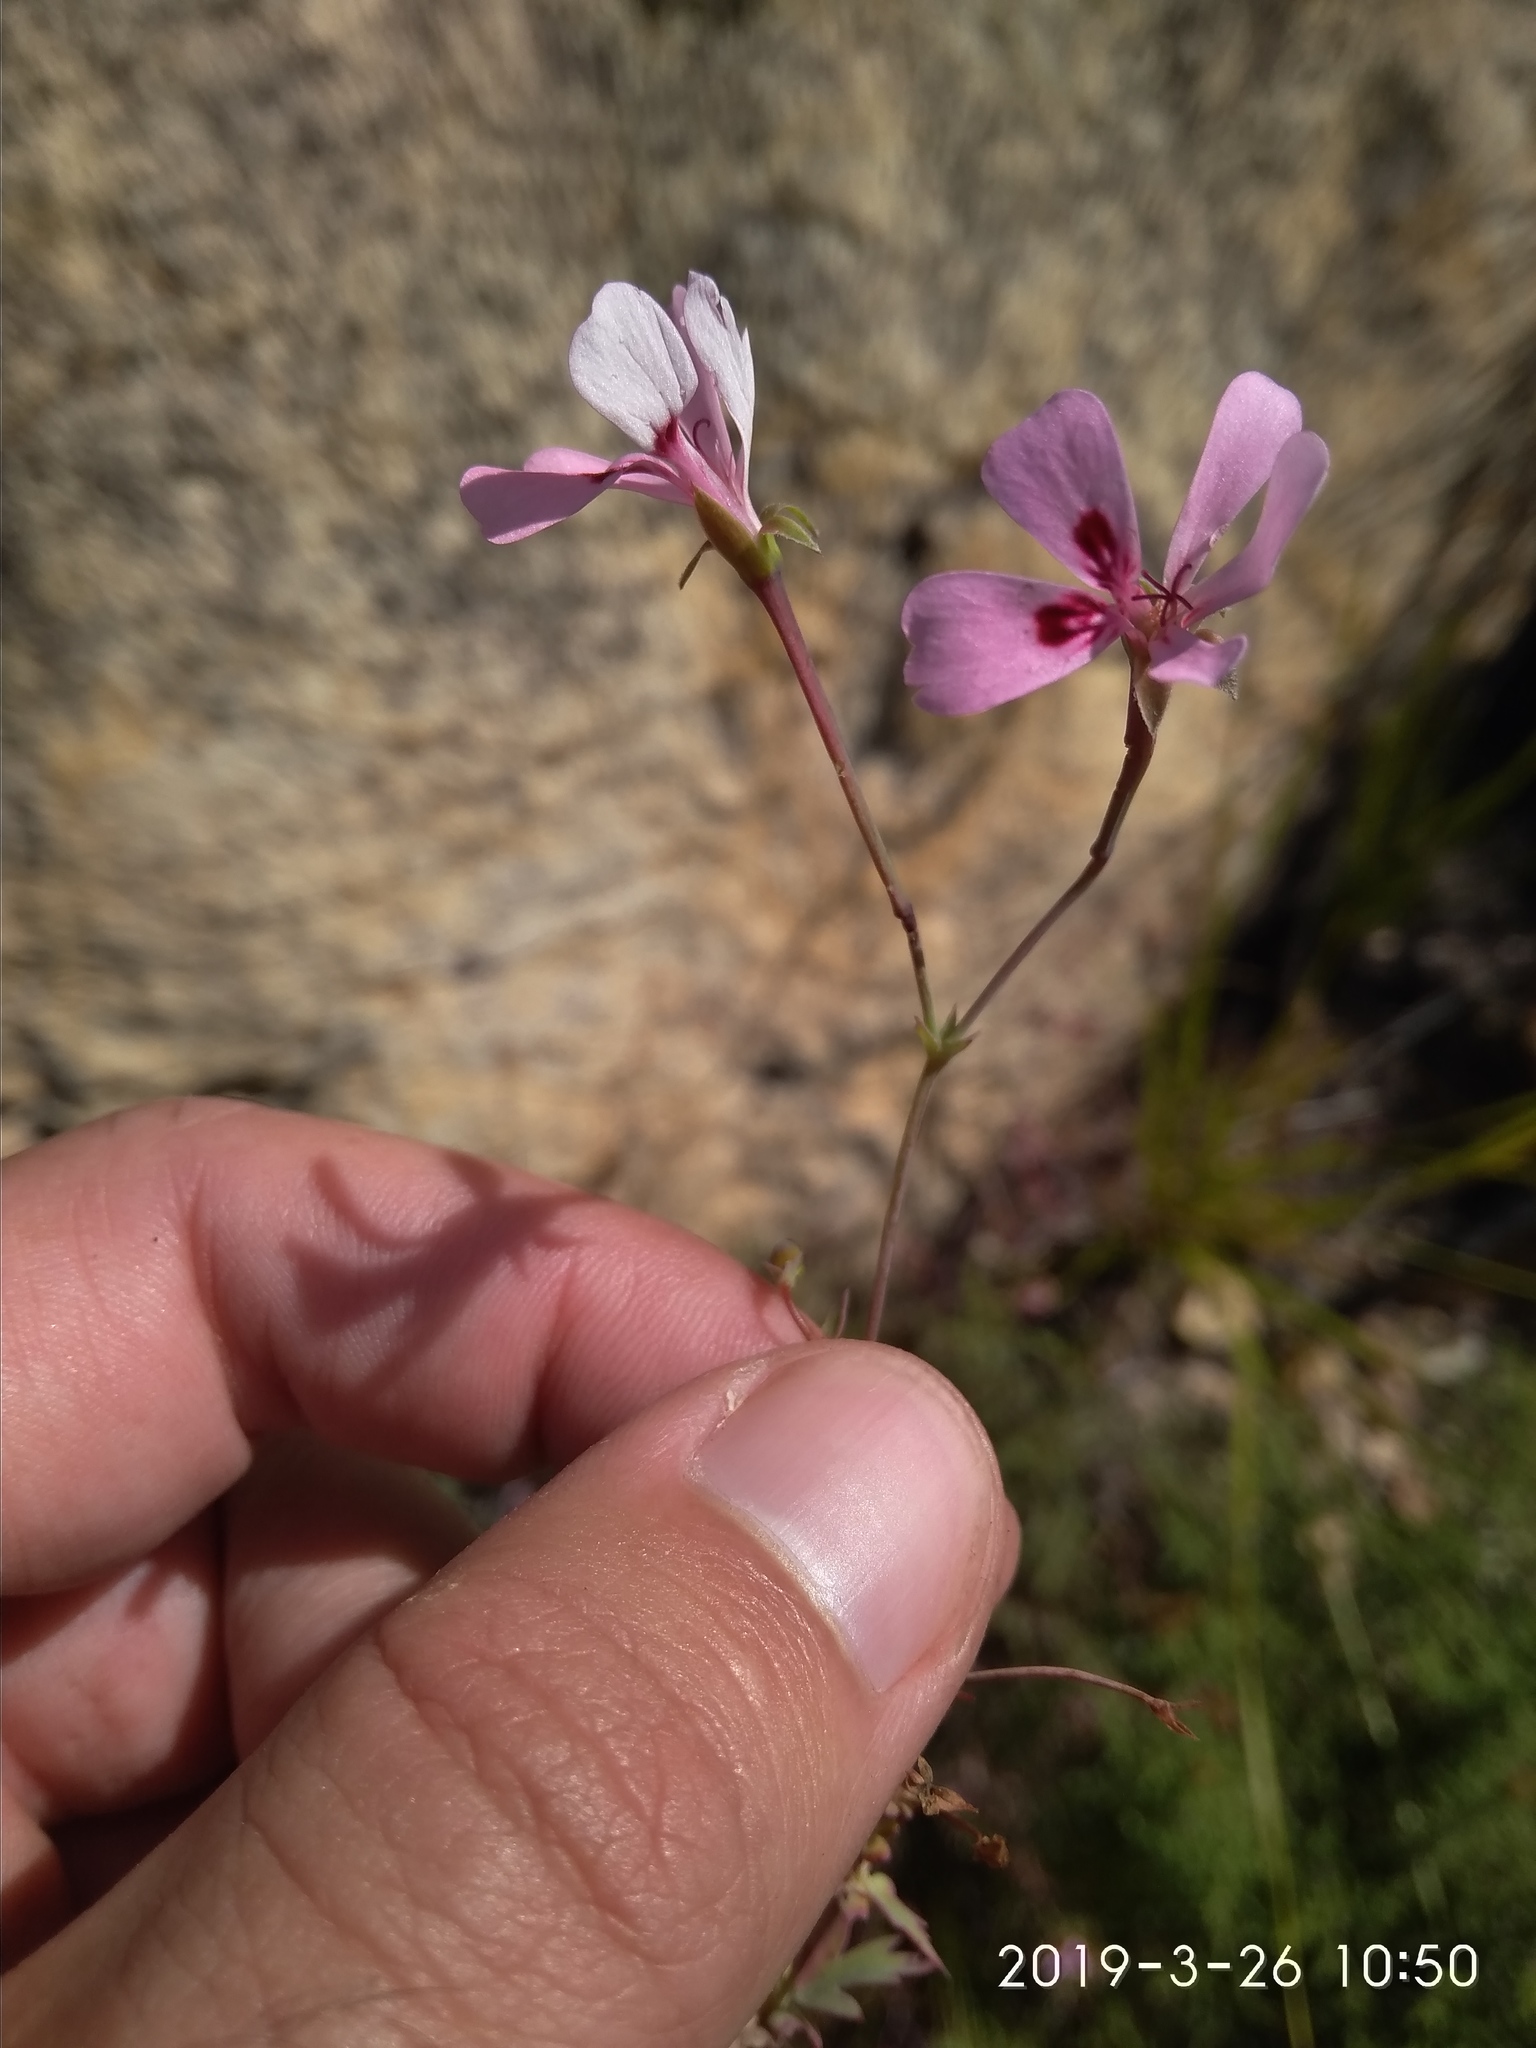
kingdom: Plantae
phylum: Tracheophyta
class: Magnoliopsida
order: Geraniales
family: Geraniaceae
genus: Pelargonium
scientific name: Pelargonium patulum
